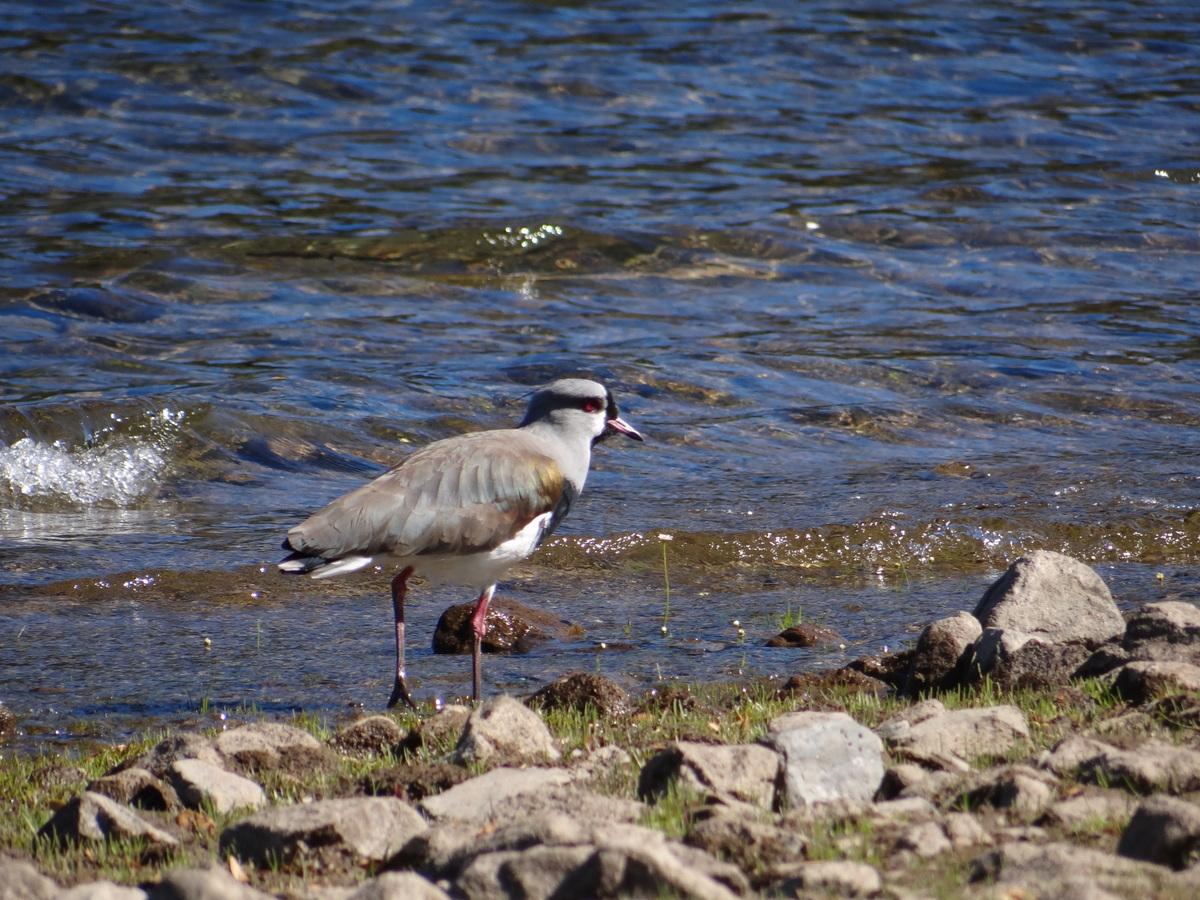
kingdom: Animalia
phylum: Chordata
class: Aves
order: Charadriiformes
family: Charadriidae
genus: Vanellus
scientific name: Vanellus chilensis
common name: Southern lapwing
